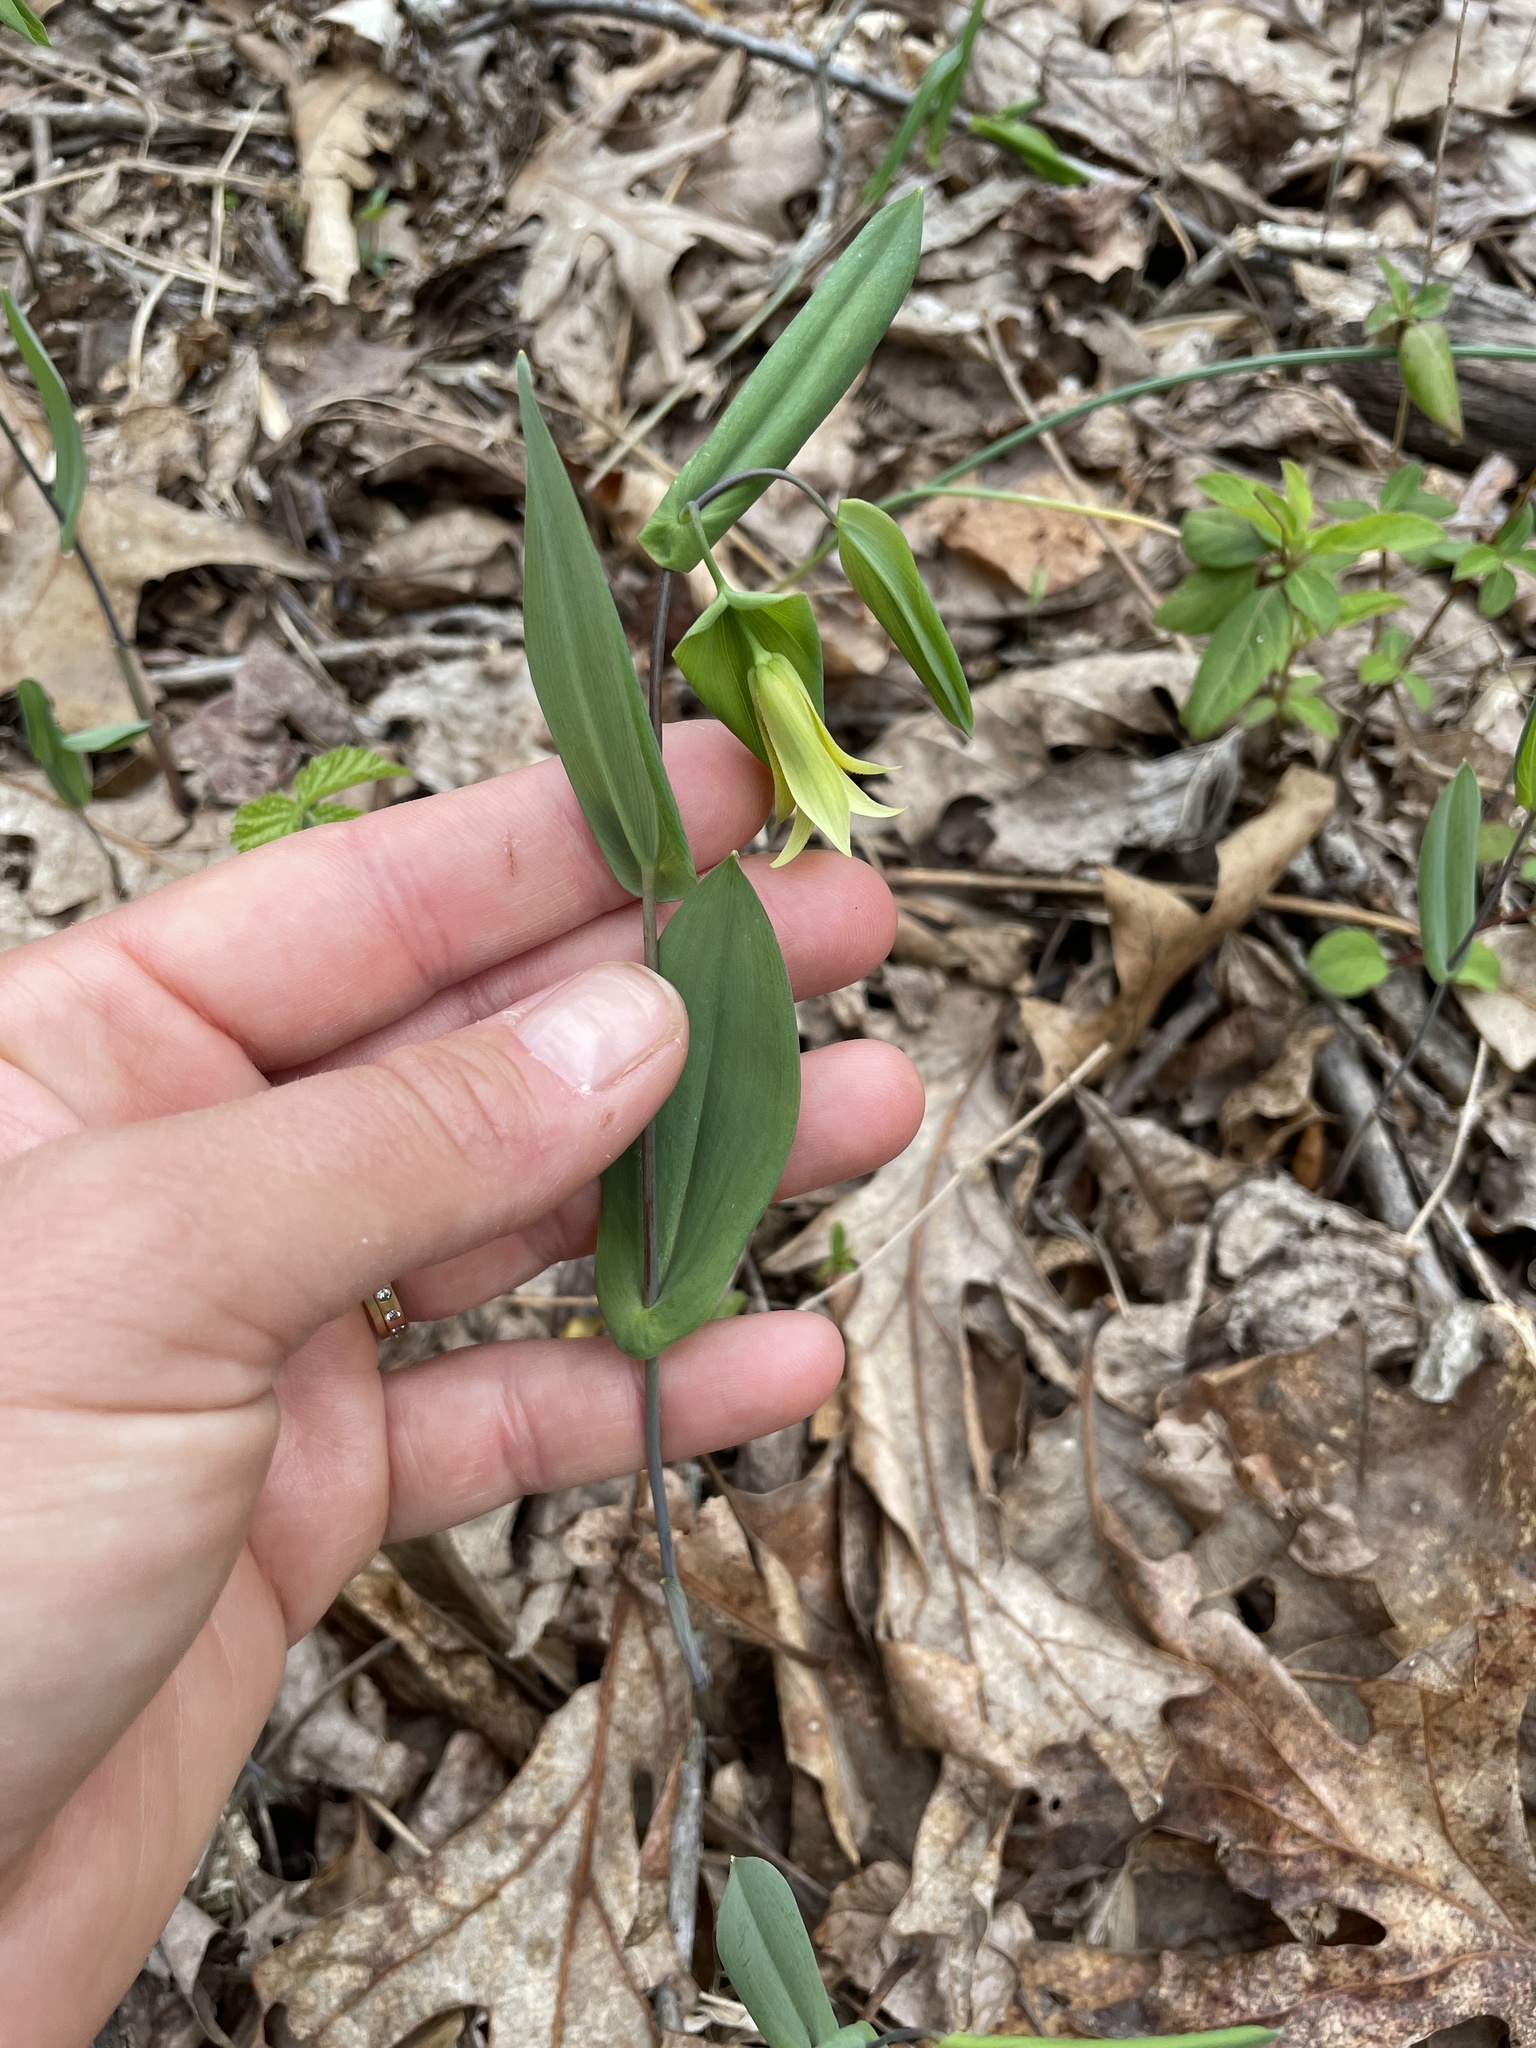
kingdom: Plantae
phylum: Tracheophyta
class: Liliopsida
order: Liliales
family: Colchicaceae
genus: Uvularia
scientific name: Uvularia perfoliata
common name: Perfoliate bellwort
